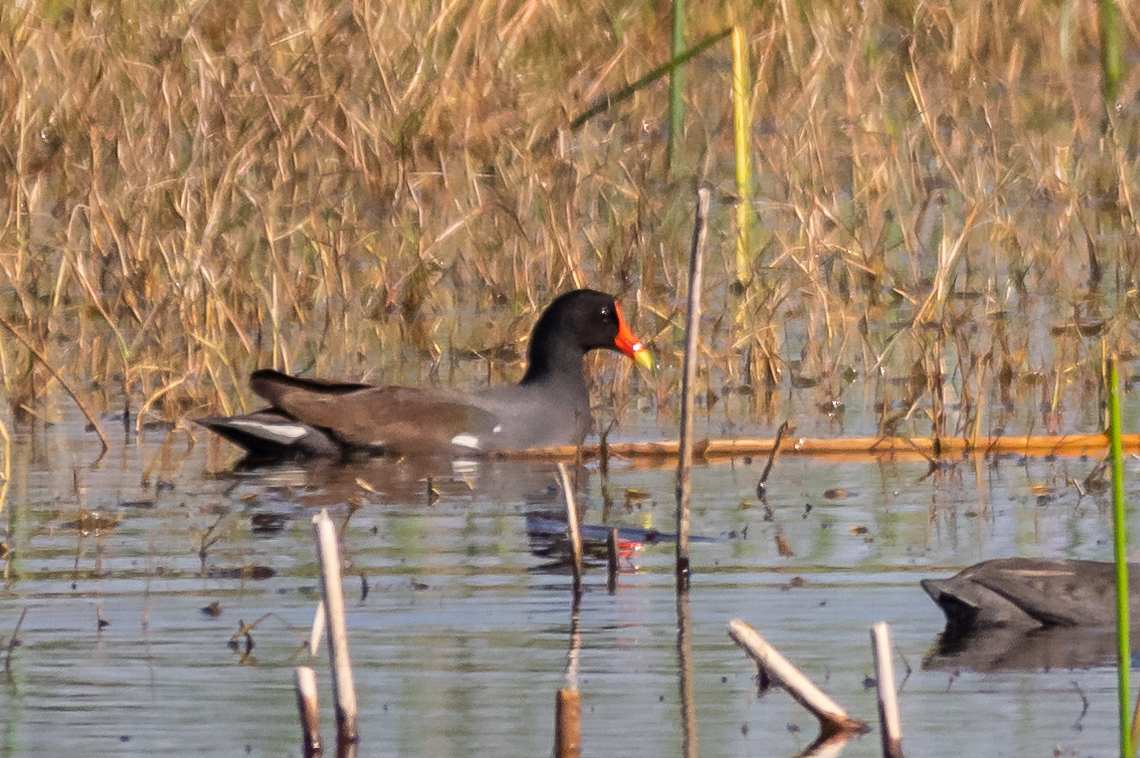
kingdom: Animalia
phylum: Chordata
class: Aves
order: Gruiformes
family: Rallidae
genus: Gallinula
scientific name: Gallinula chloropus
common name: Common moorhen
